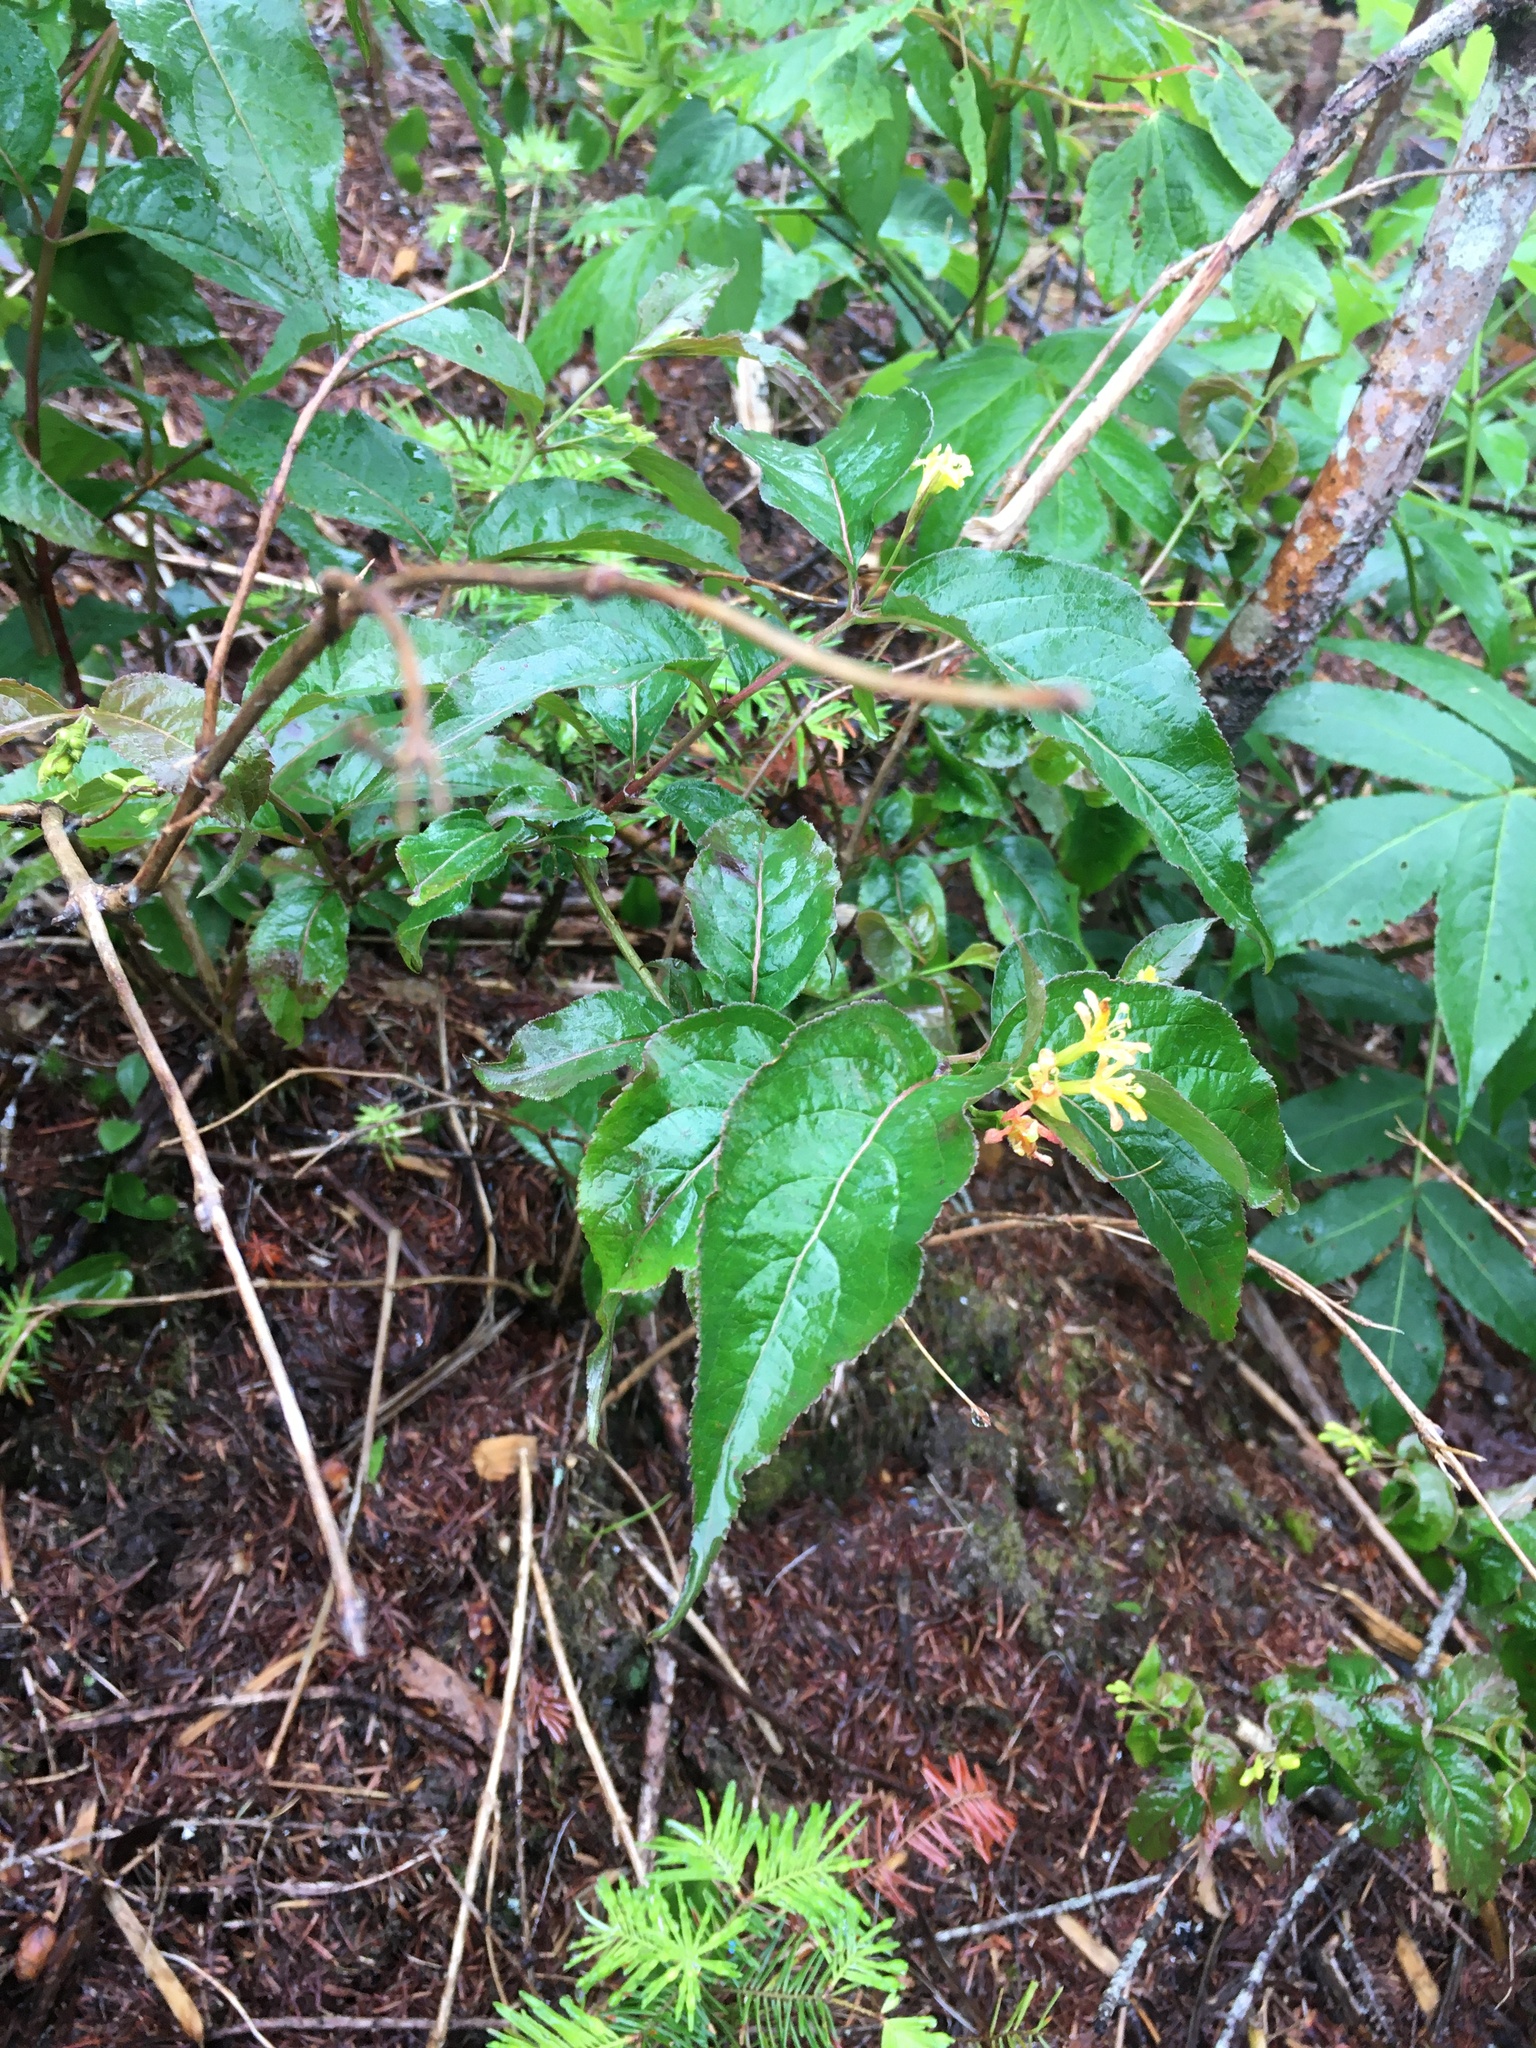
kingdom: Plantae
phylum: Tracheophyta
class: Magnoliopsida
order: Dipsacales
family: Caprifoliaceae
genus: Diervilla
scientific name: Diervilla lonicera
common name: Bush-honeysuckle
